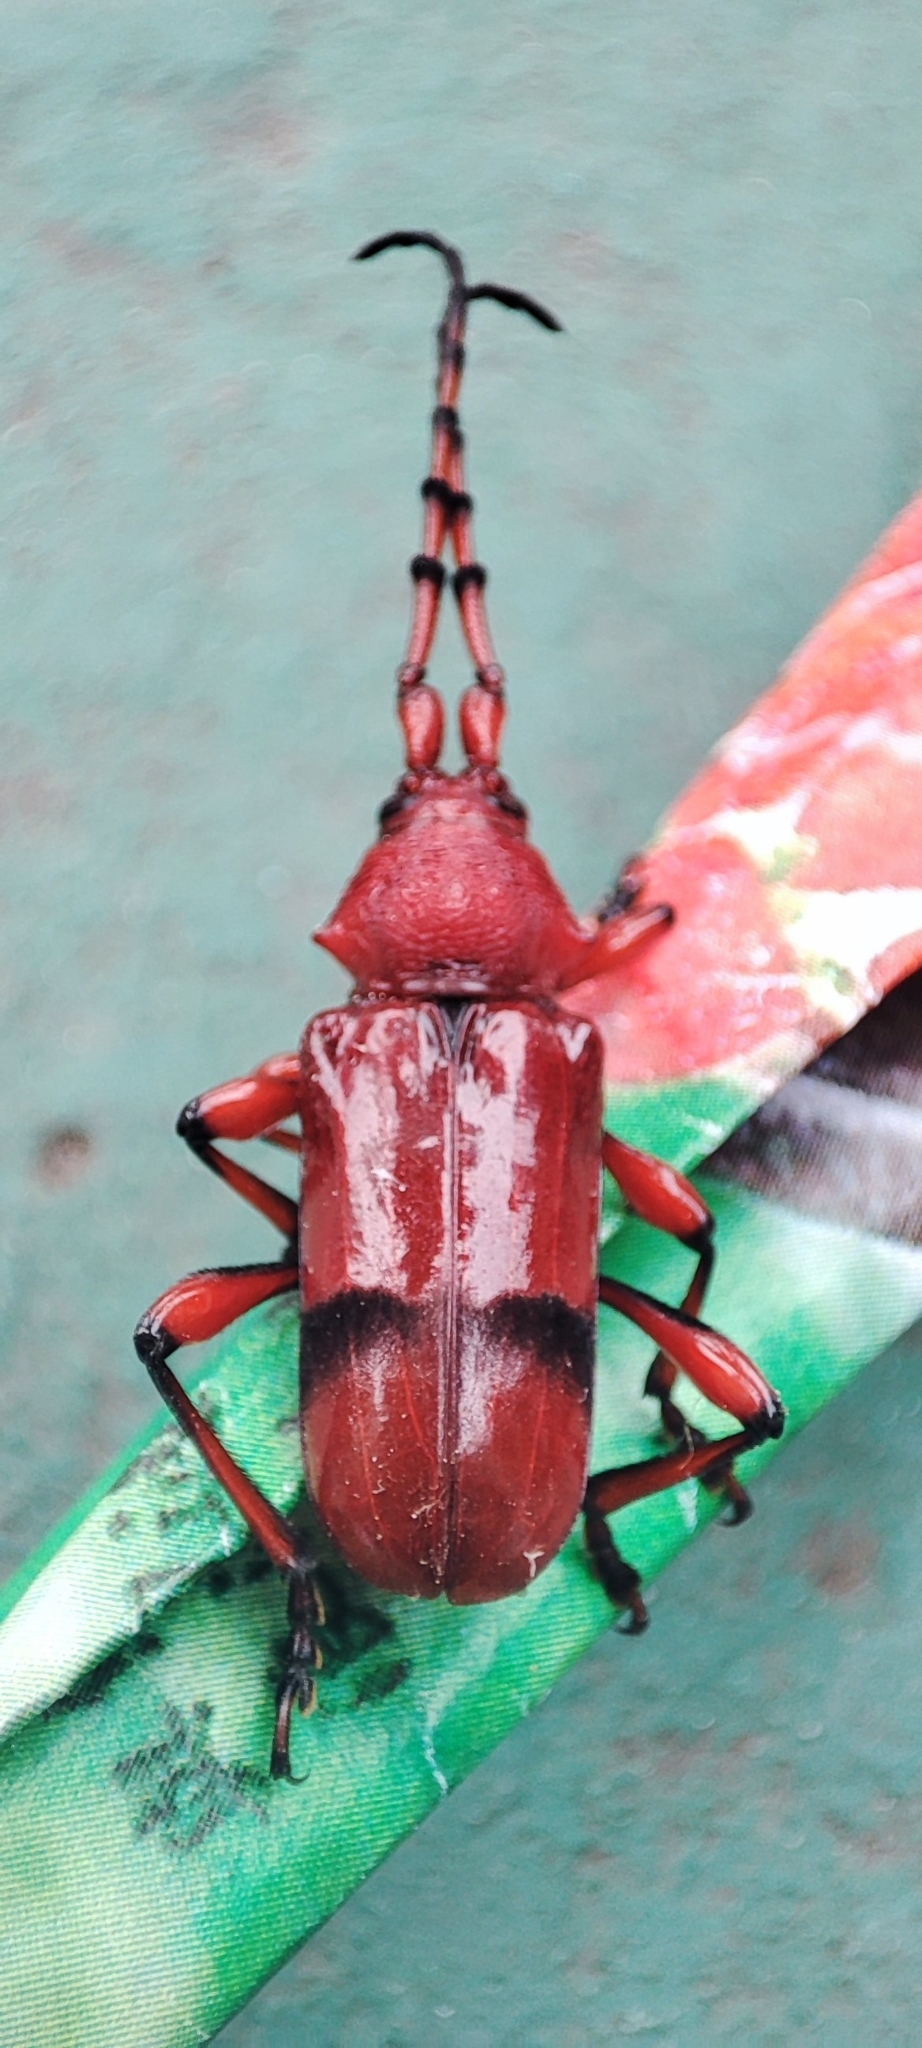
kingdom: Animalia
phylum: Arthropoda
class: Insecta
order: Coleoptera
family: Cerambycidae
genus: Dicelosternus
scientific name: Dicelosternus corallinus
